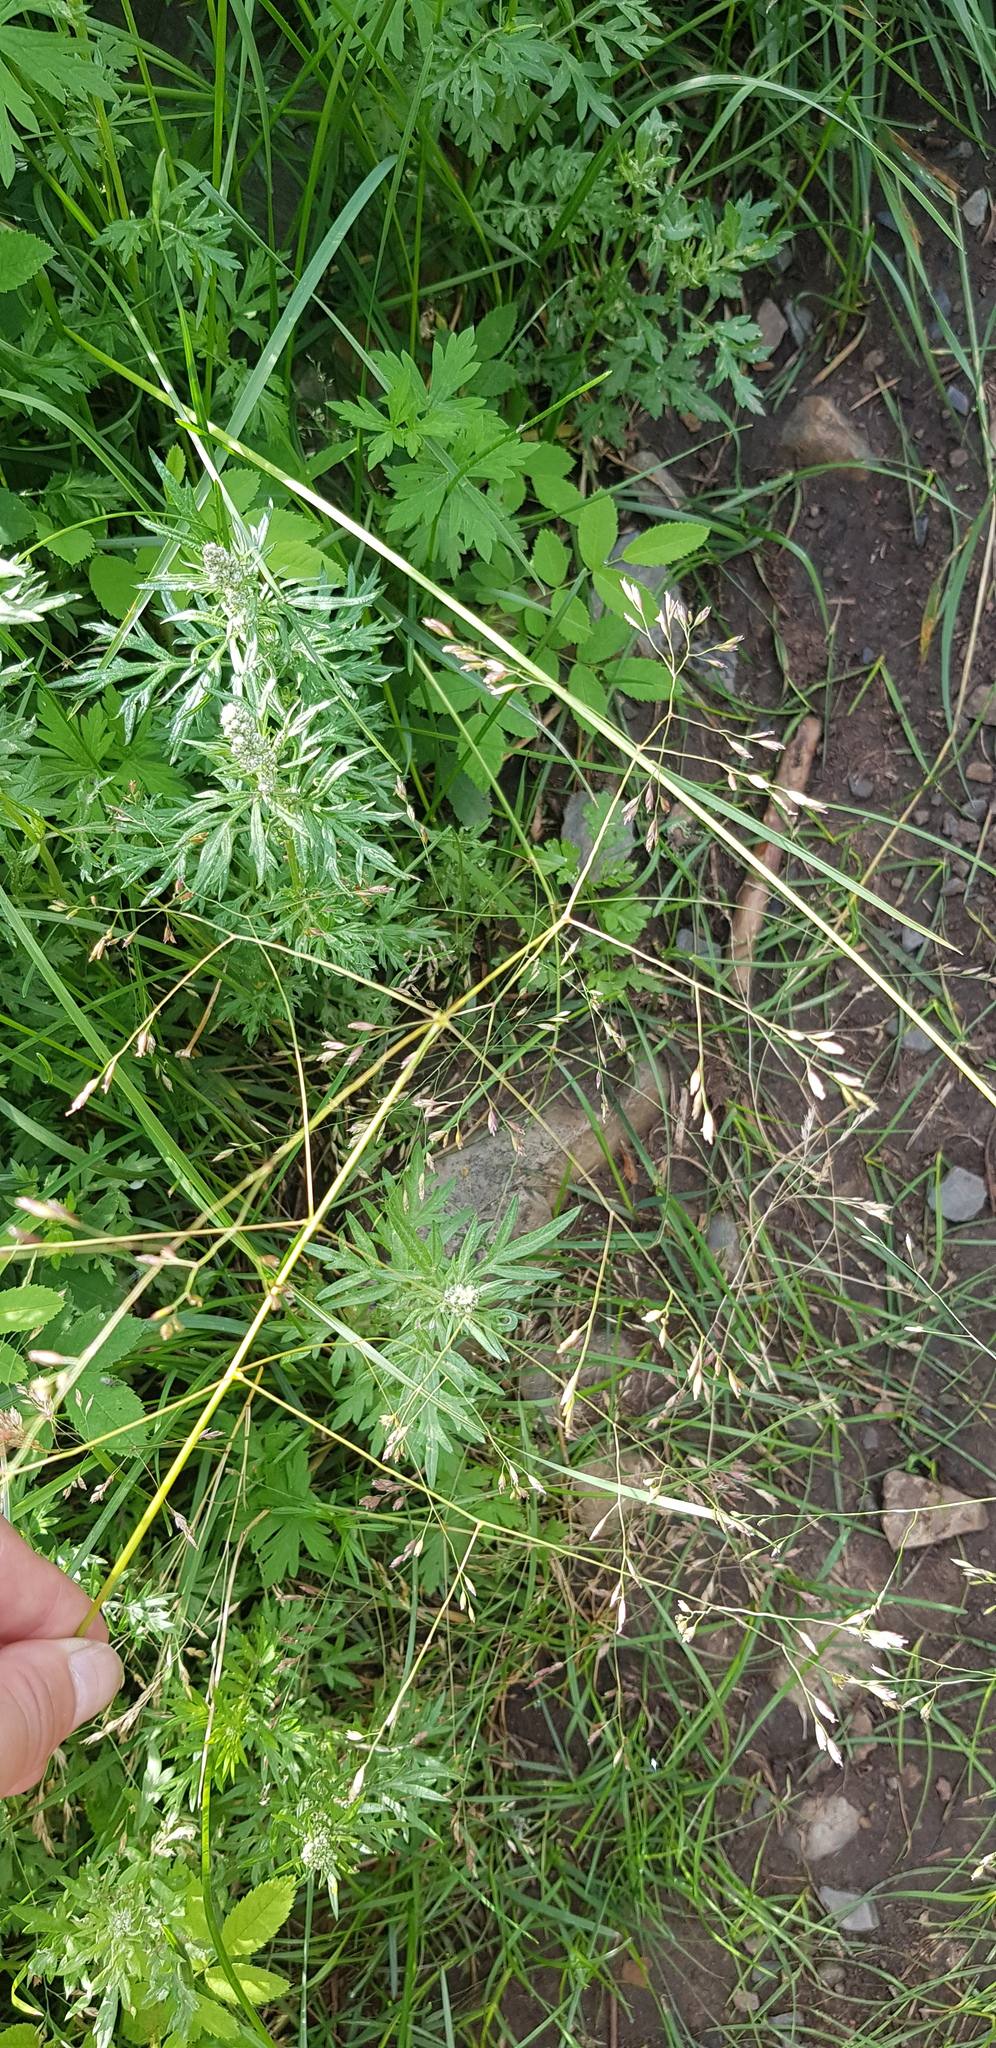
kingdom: Plantae
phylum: Tracheophyta
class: Liliopsida
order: Poales
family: Poaceae
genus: Poa
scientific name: Poa subfastigiata
